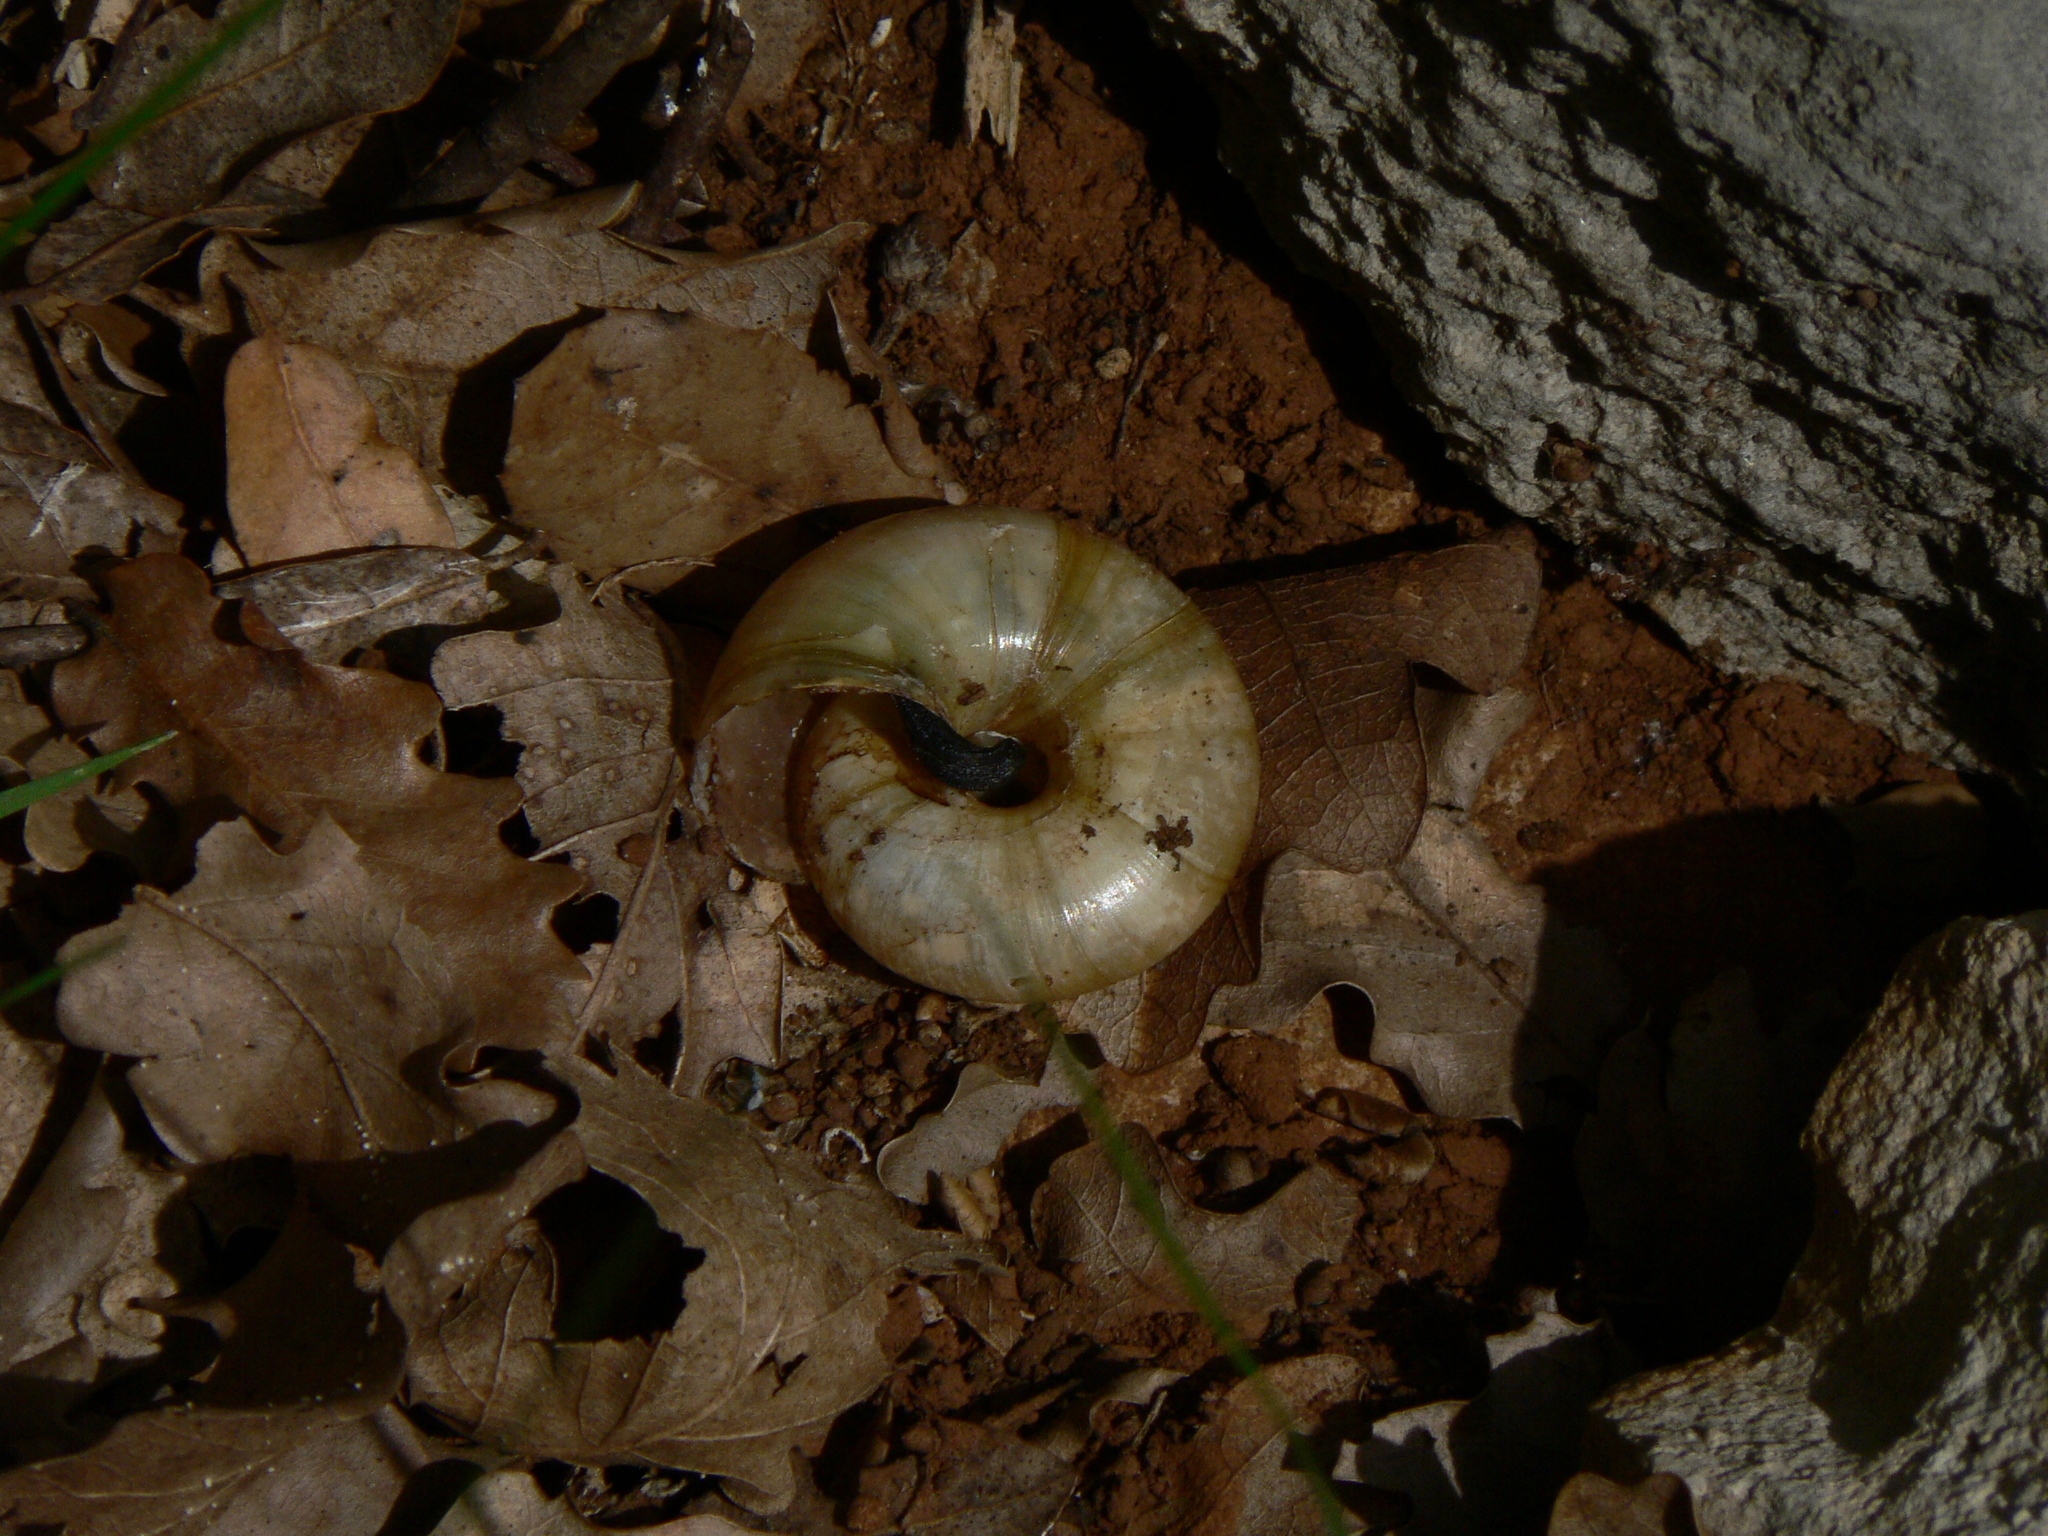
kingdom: Animalia
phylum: Mollusca
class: Gastropoda
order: Stylommatophora
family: Zonitidae
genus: Zonites
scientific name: Zonites algirus
